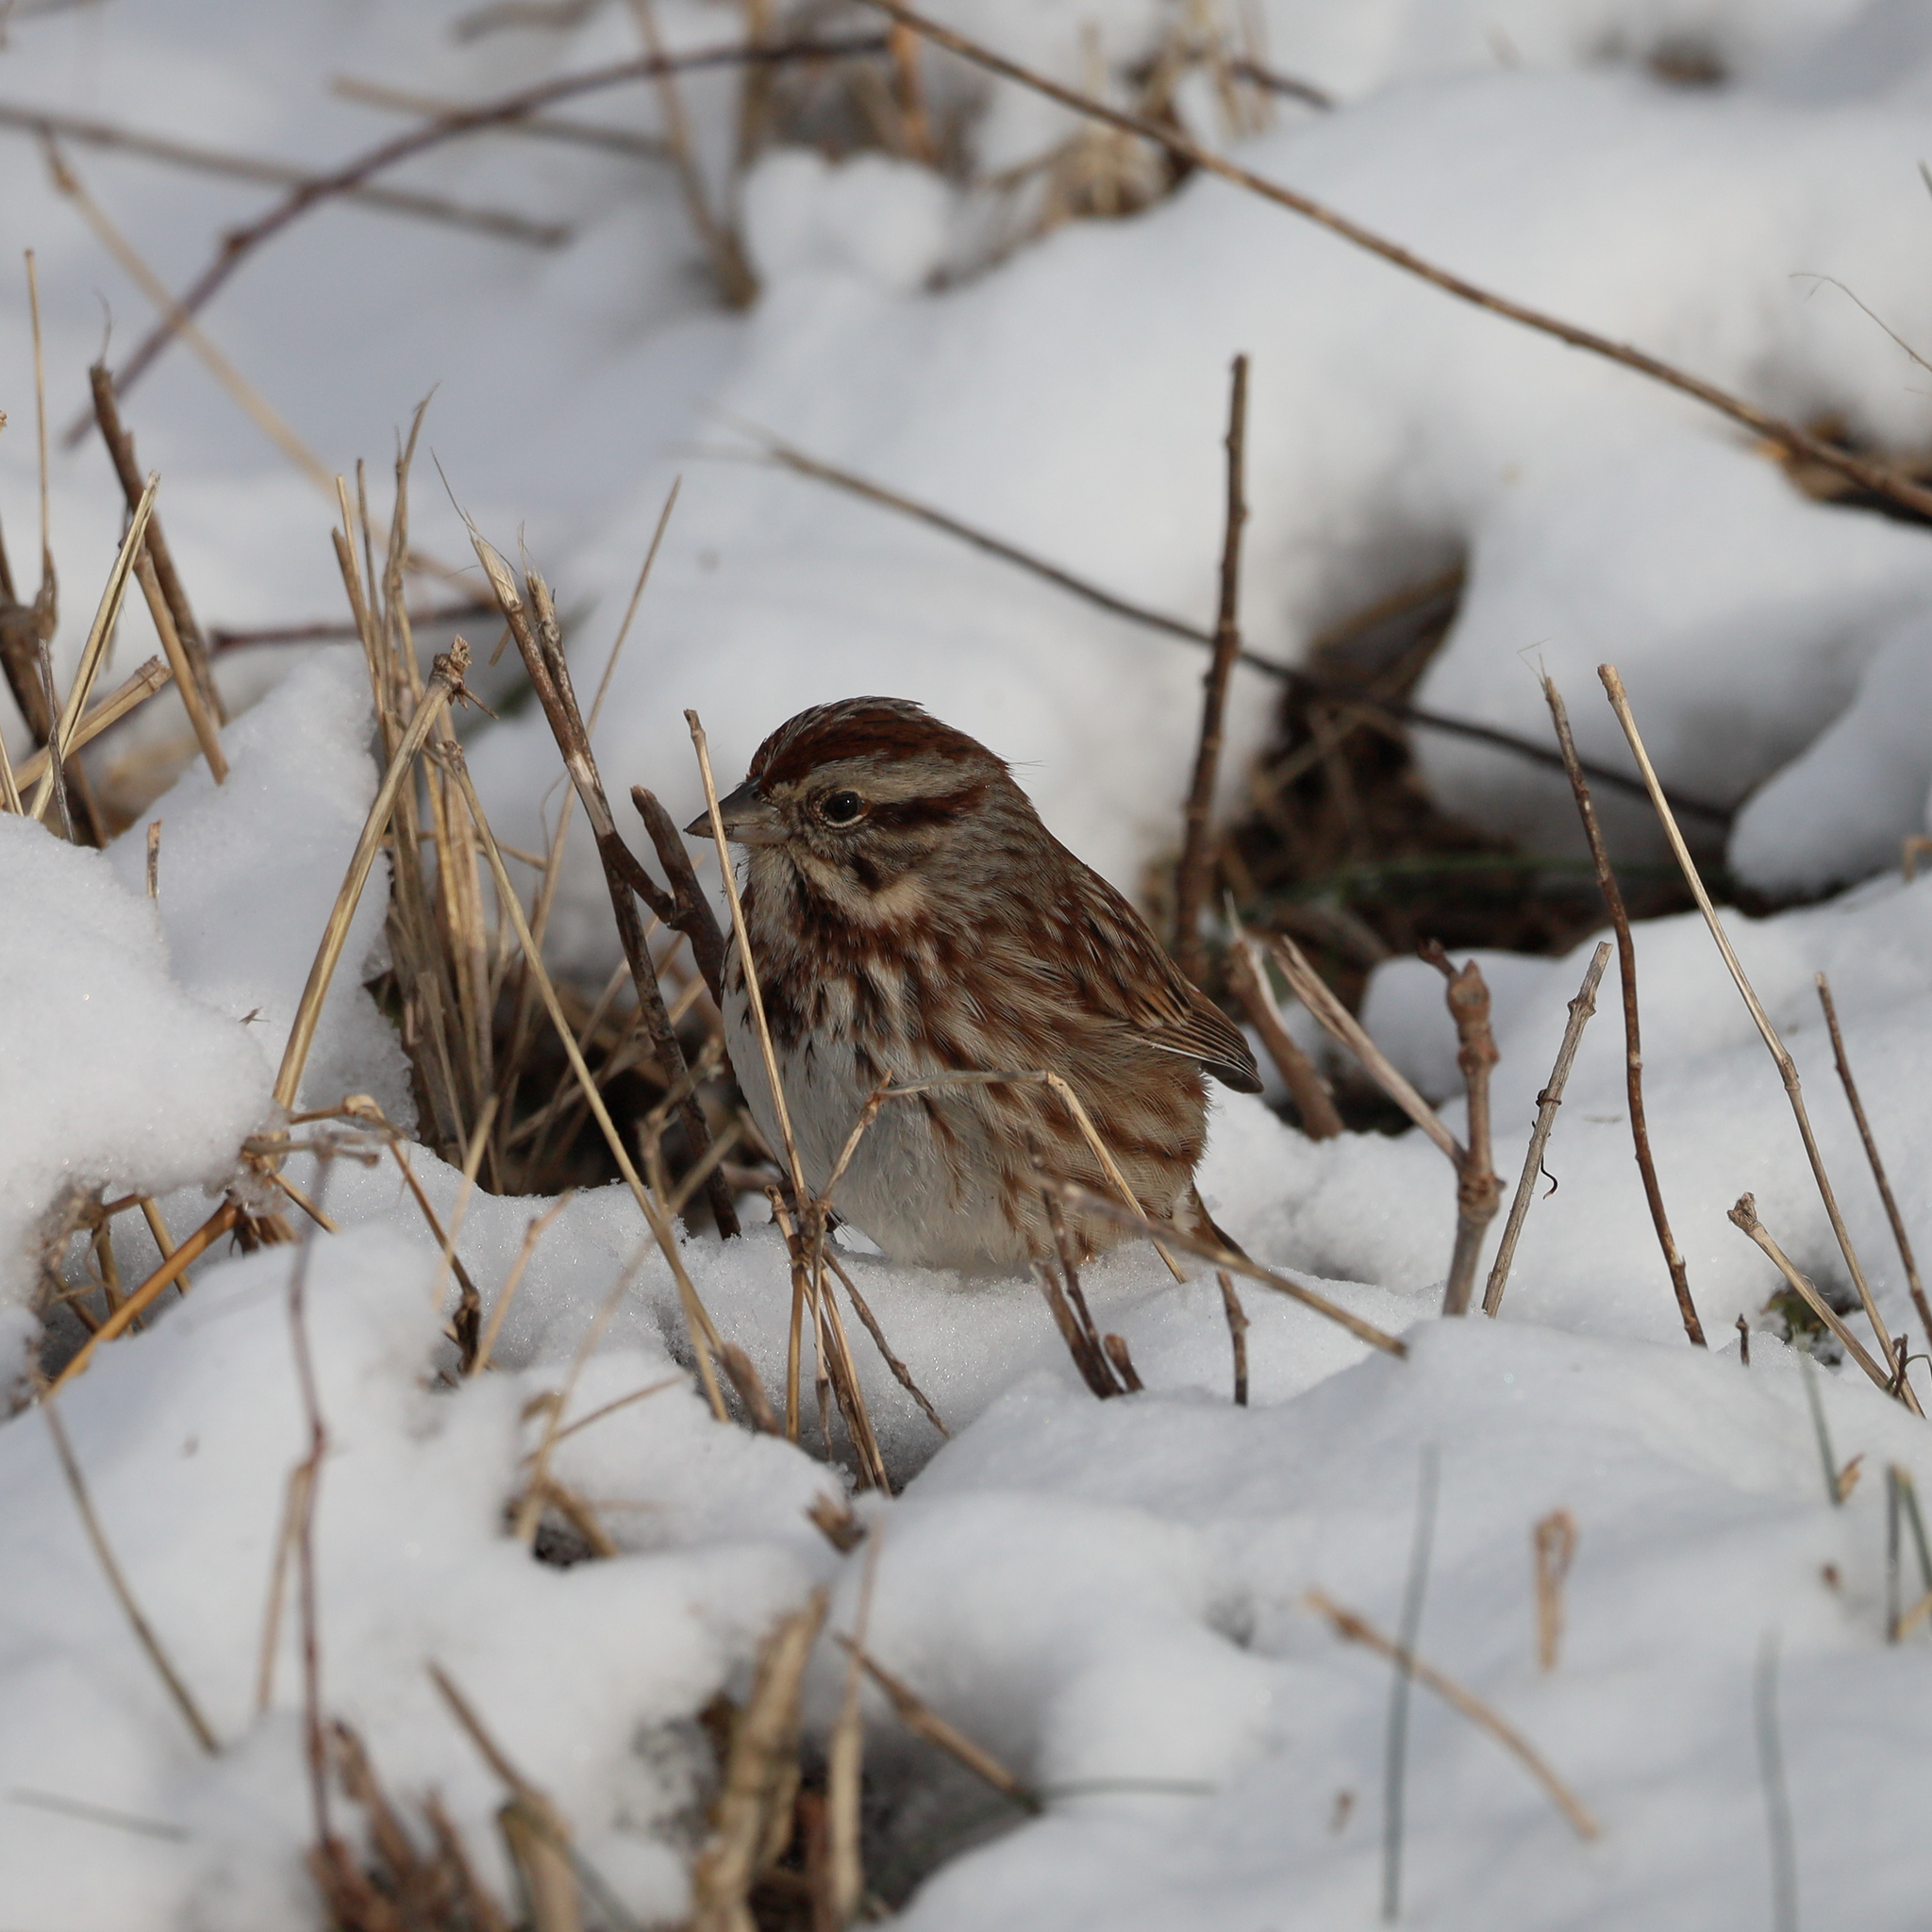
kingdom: Animalia
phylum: Chordata
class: Aves
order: Passeriformes
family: Passerellidae
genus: Melospiza
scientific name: Melospiza melodia
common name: Song sparrow
